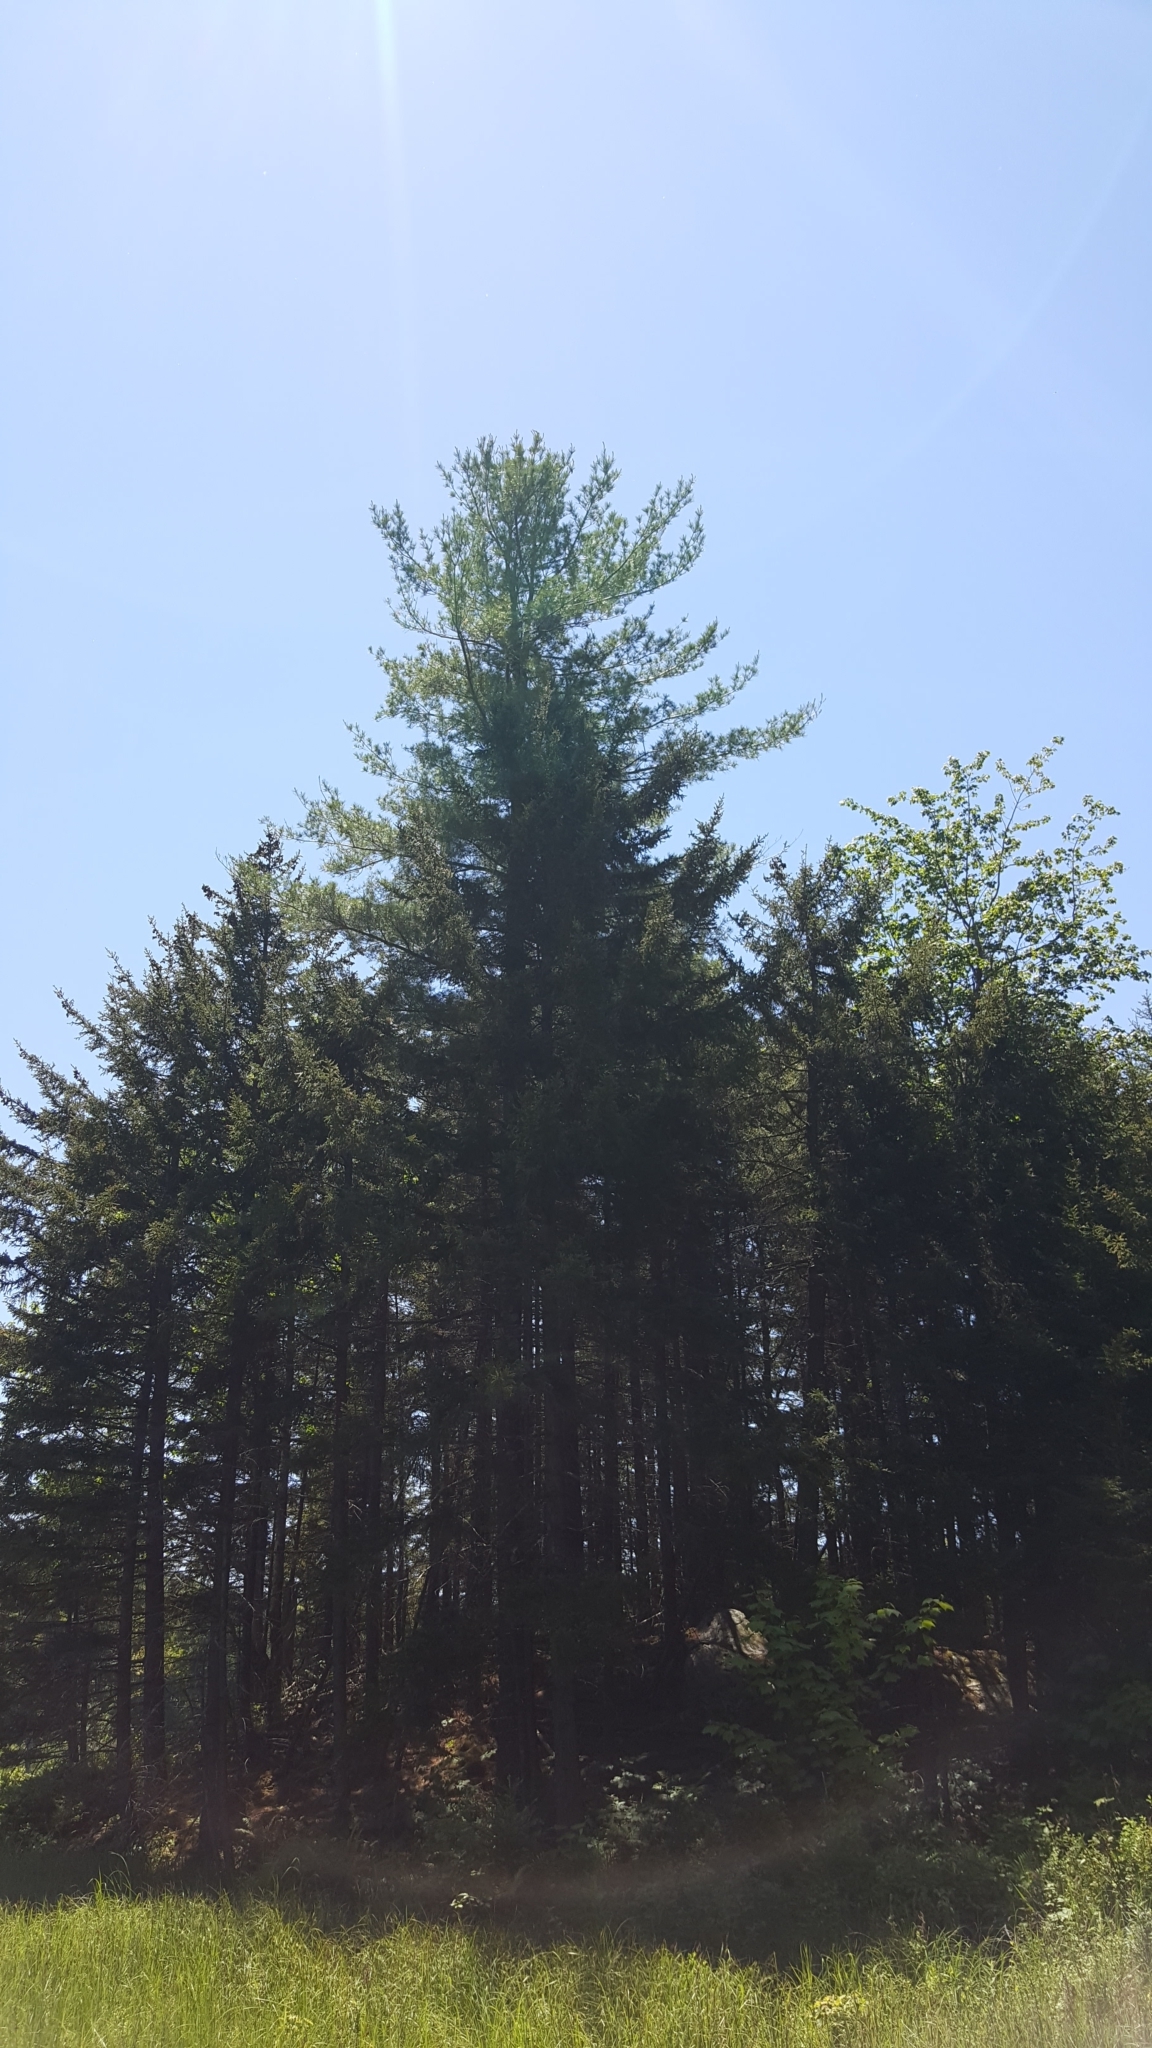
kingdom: Plantae
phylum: Tracheophyta
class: Pinopsida
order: Pinales
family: Pinaceae
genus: Pinus
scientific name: Pinus strobus
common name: Weymouth pine
